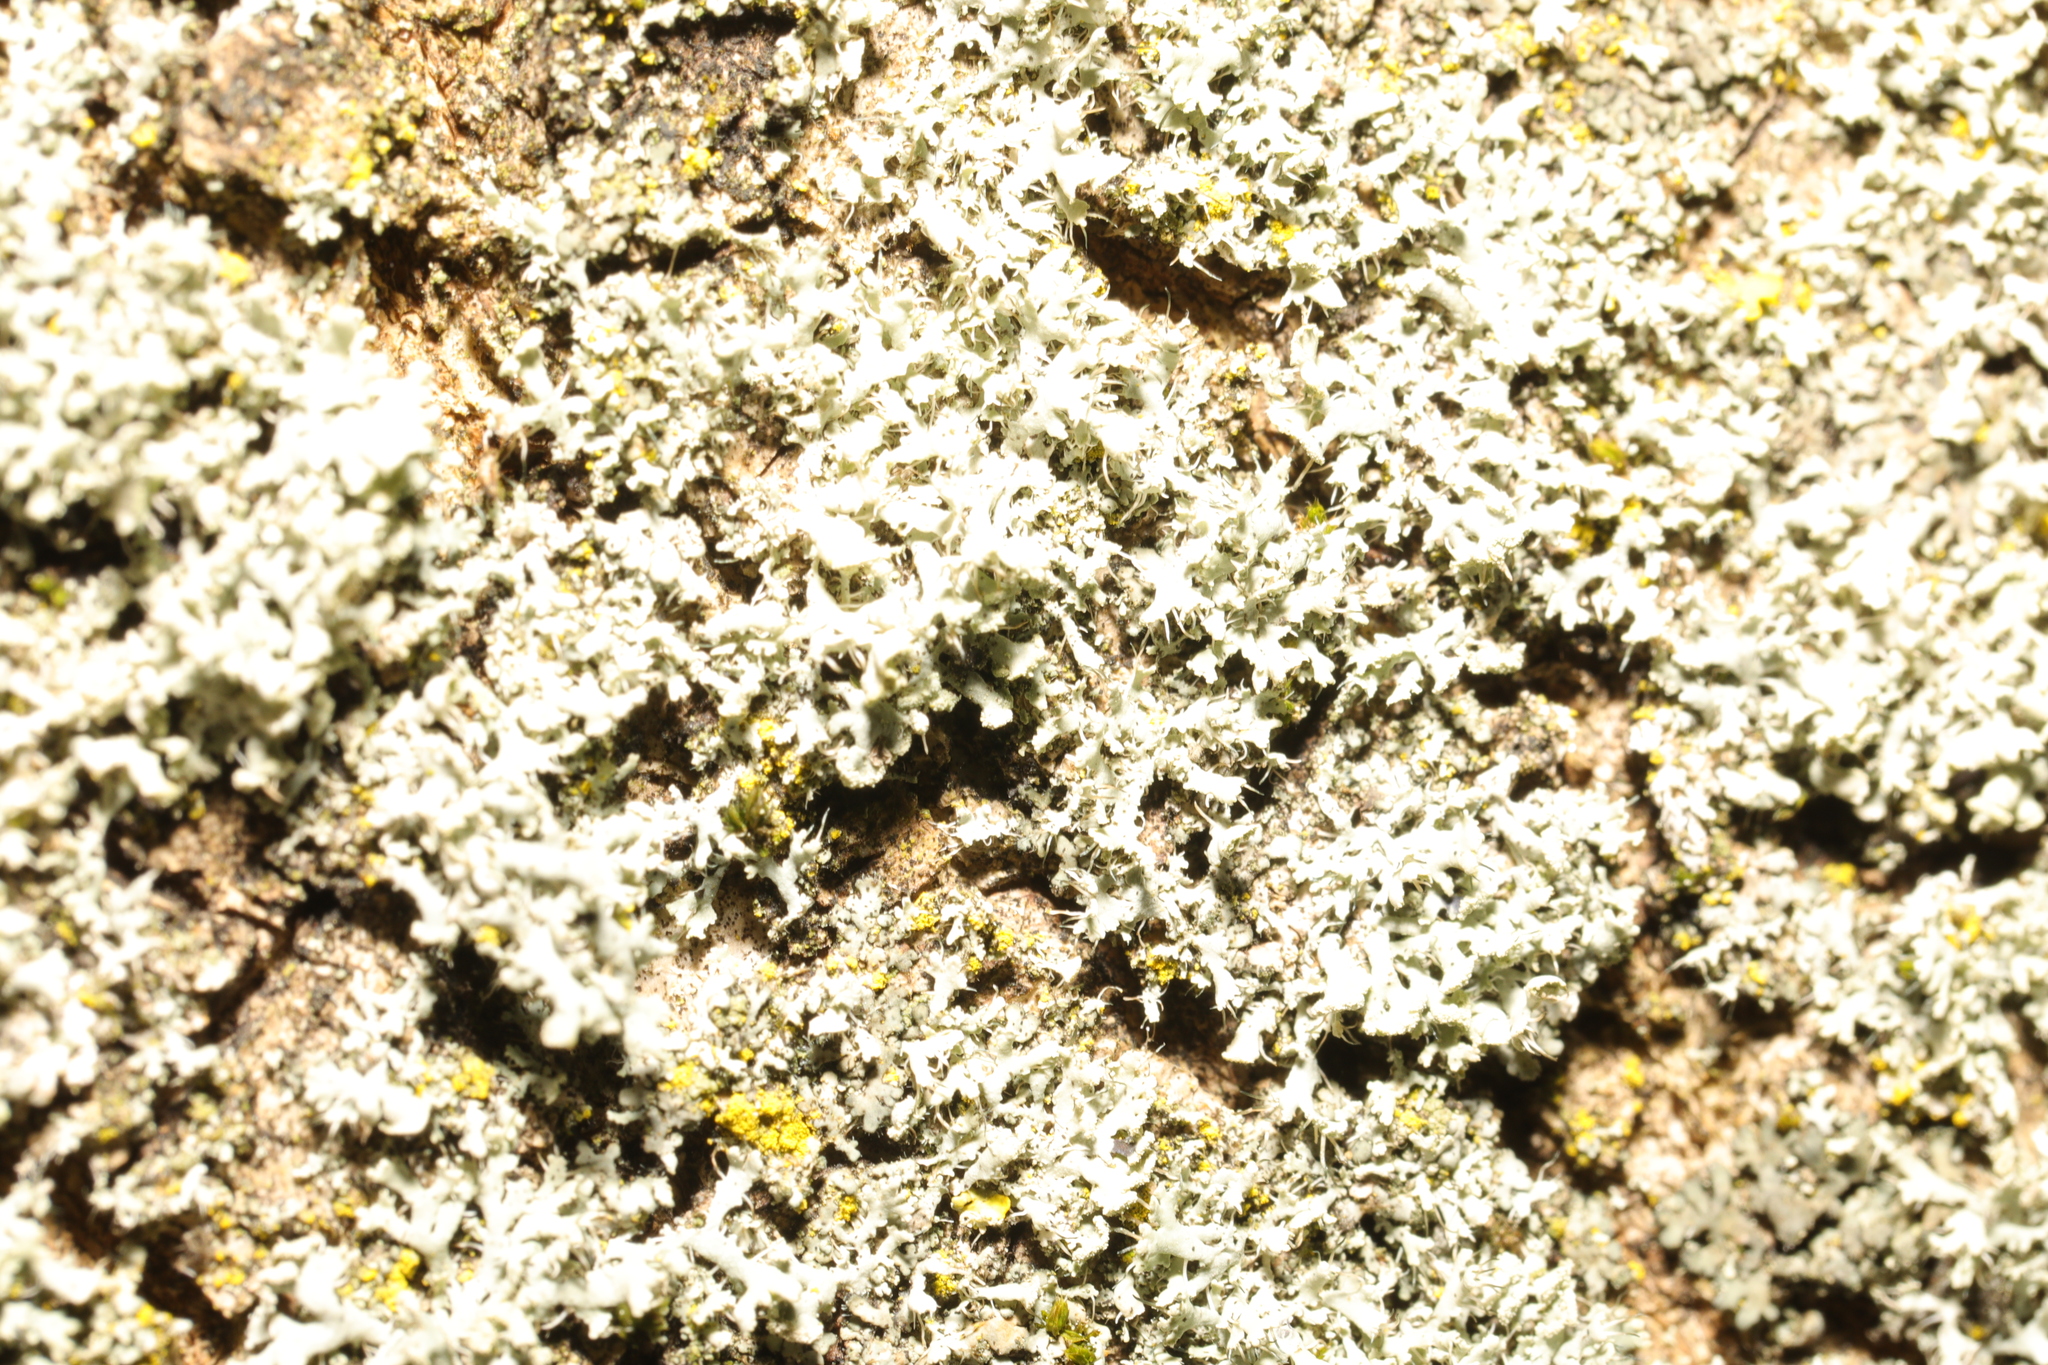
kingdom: Fungi
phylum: Ascomycota
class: Lecanoromycetes
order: Caliciales
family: Physciaceae
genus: Physcia
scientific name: Physcia tenella
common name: Fringed rosette lichen
